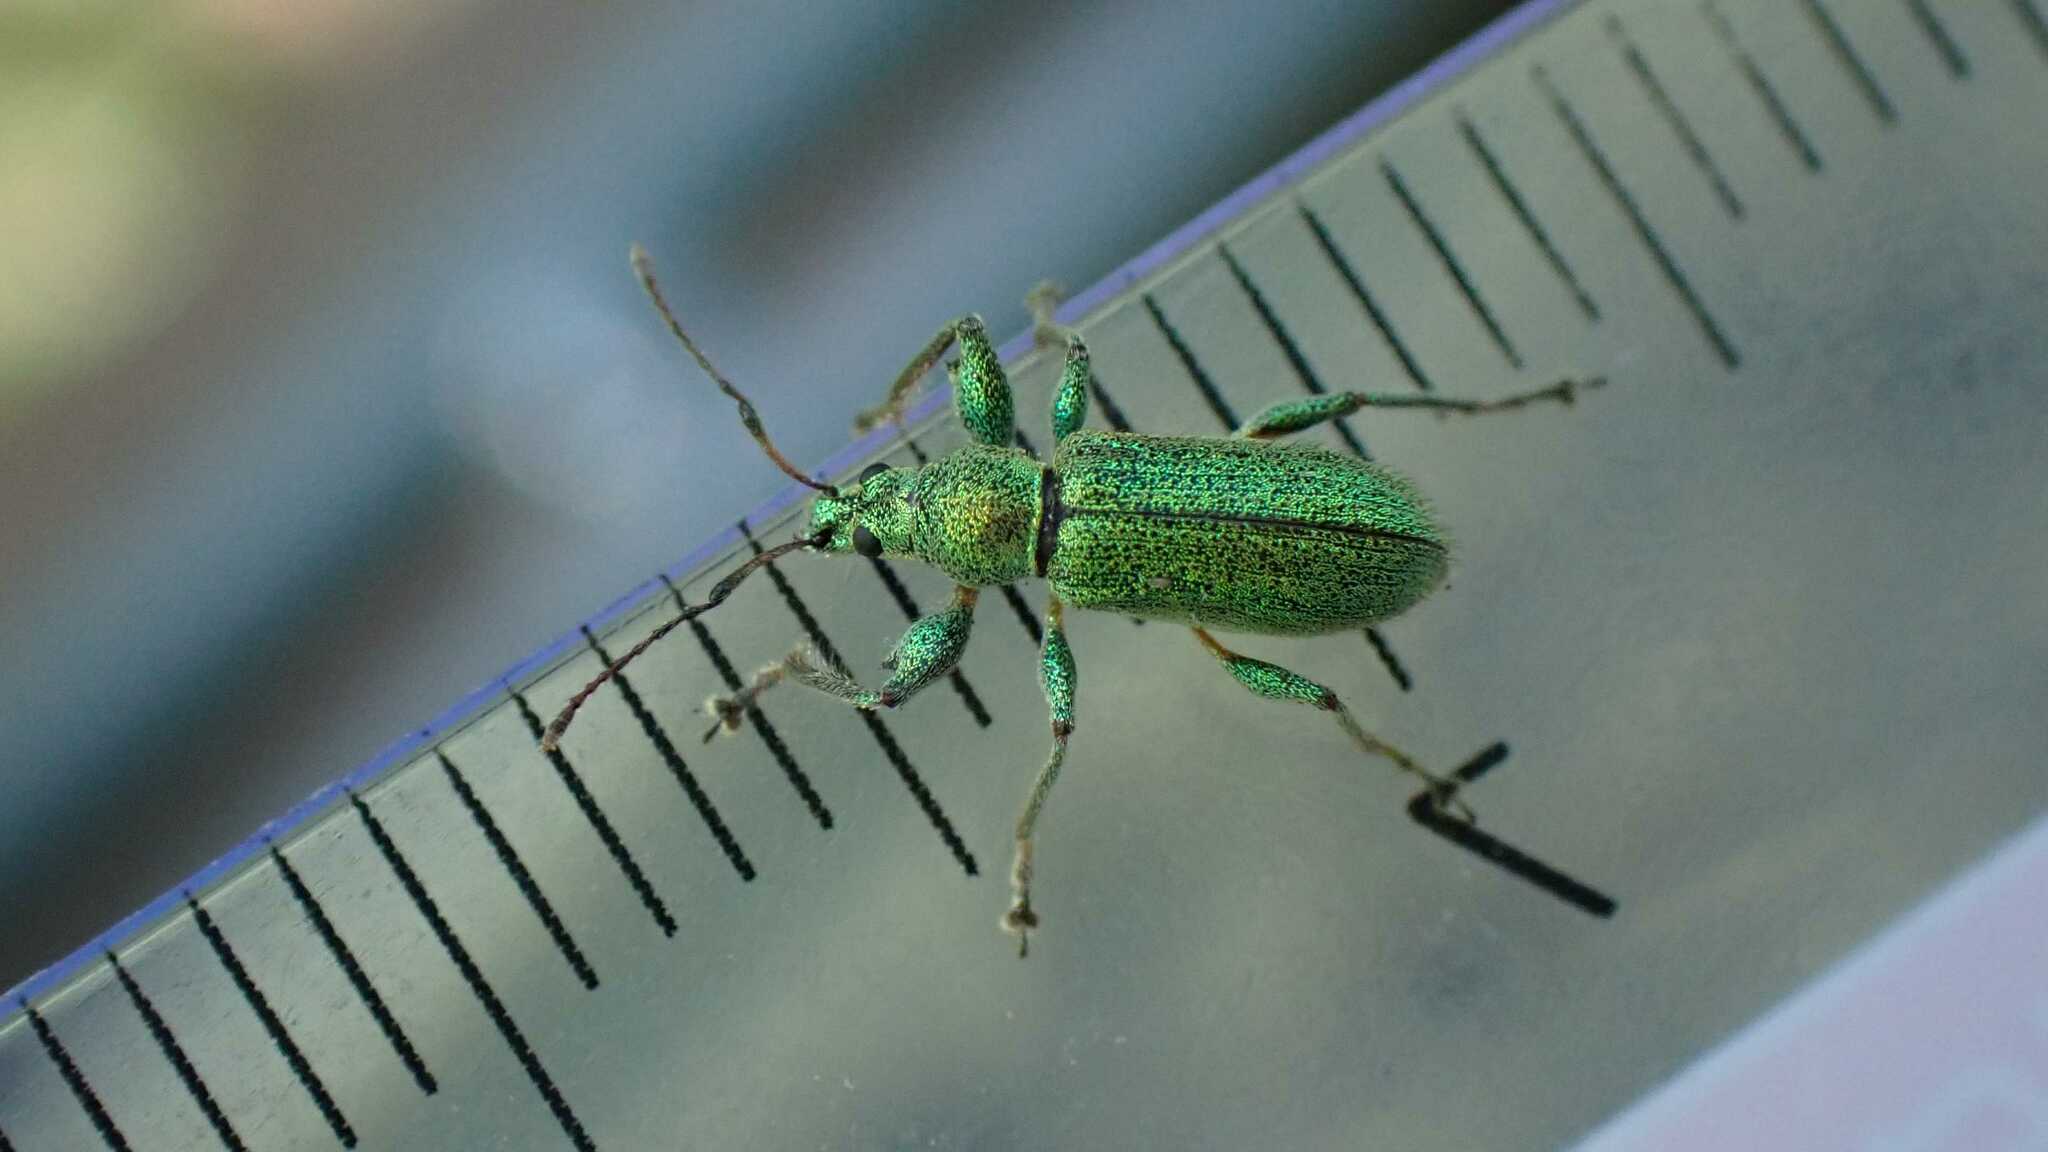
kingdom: Animalia
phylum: Arthropoda
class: Insecta
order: Coleoptera
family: Curculionidae
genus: Phyllobius
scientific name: Phyllobius arborator
